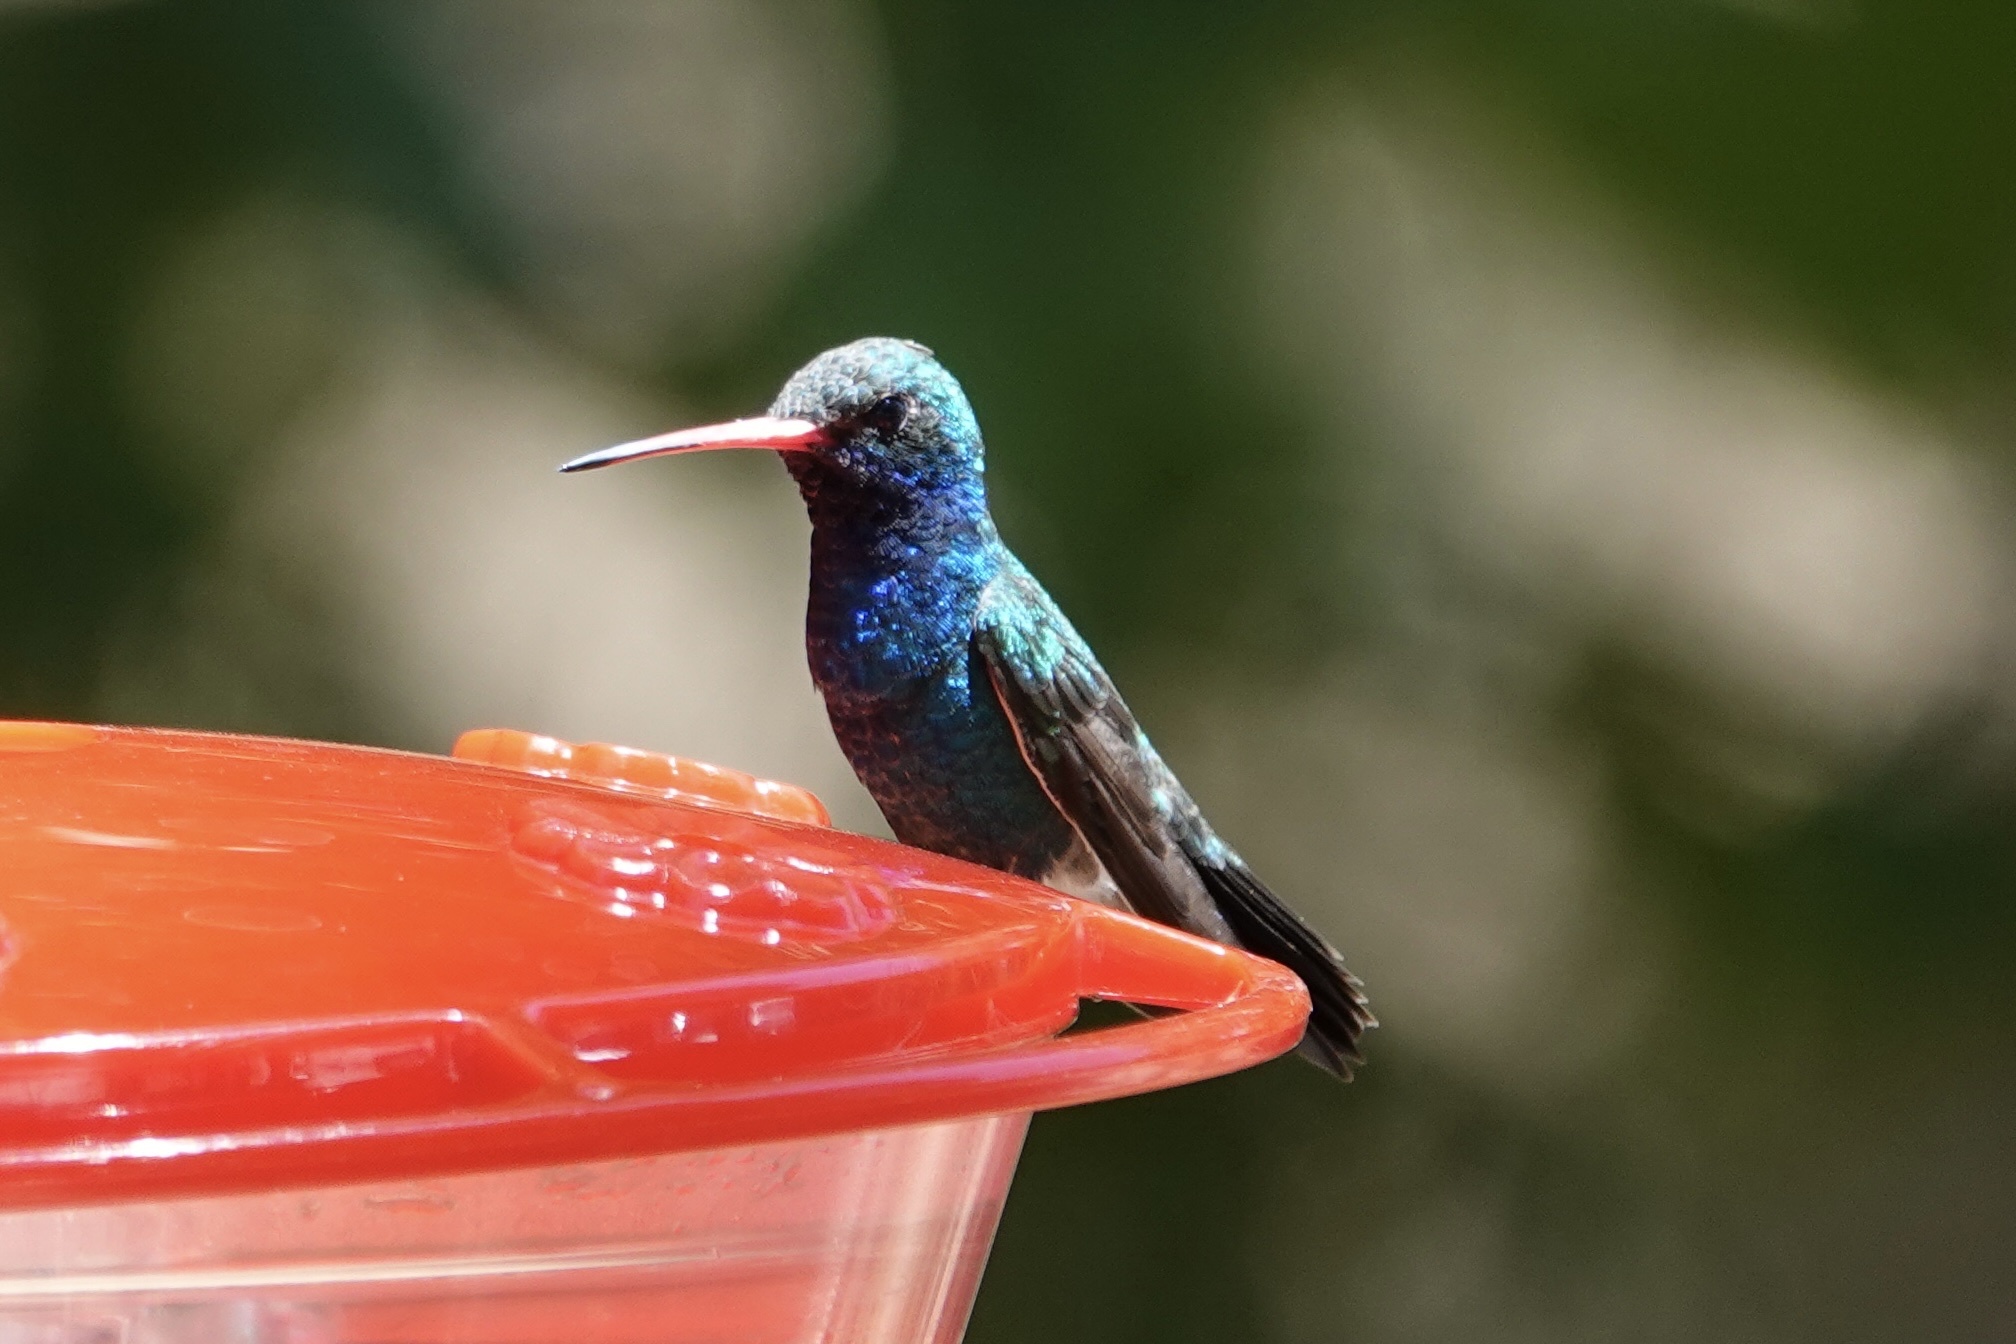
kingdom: Animalia
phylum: Chordata
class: Aves
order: Apodiformes
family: Trochilidae
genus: Cynanthus
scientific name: Cynanthus latirostris
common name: Broad-billed hummingbird
